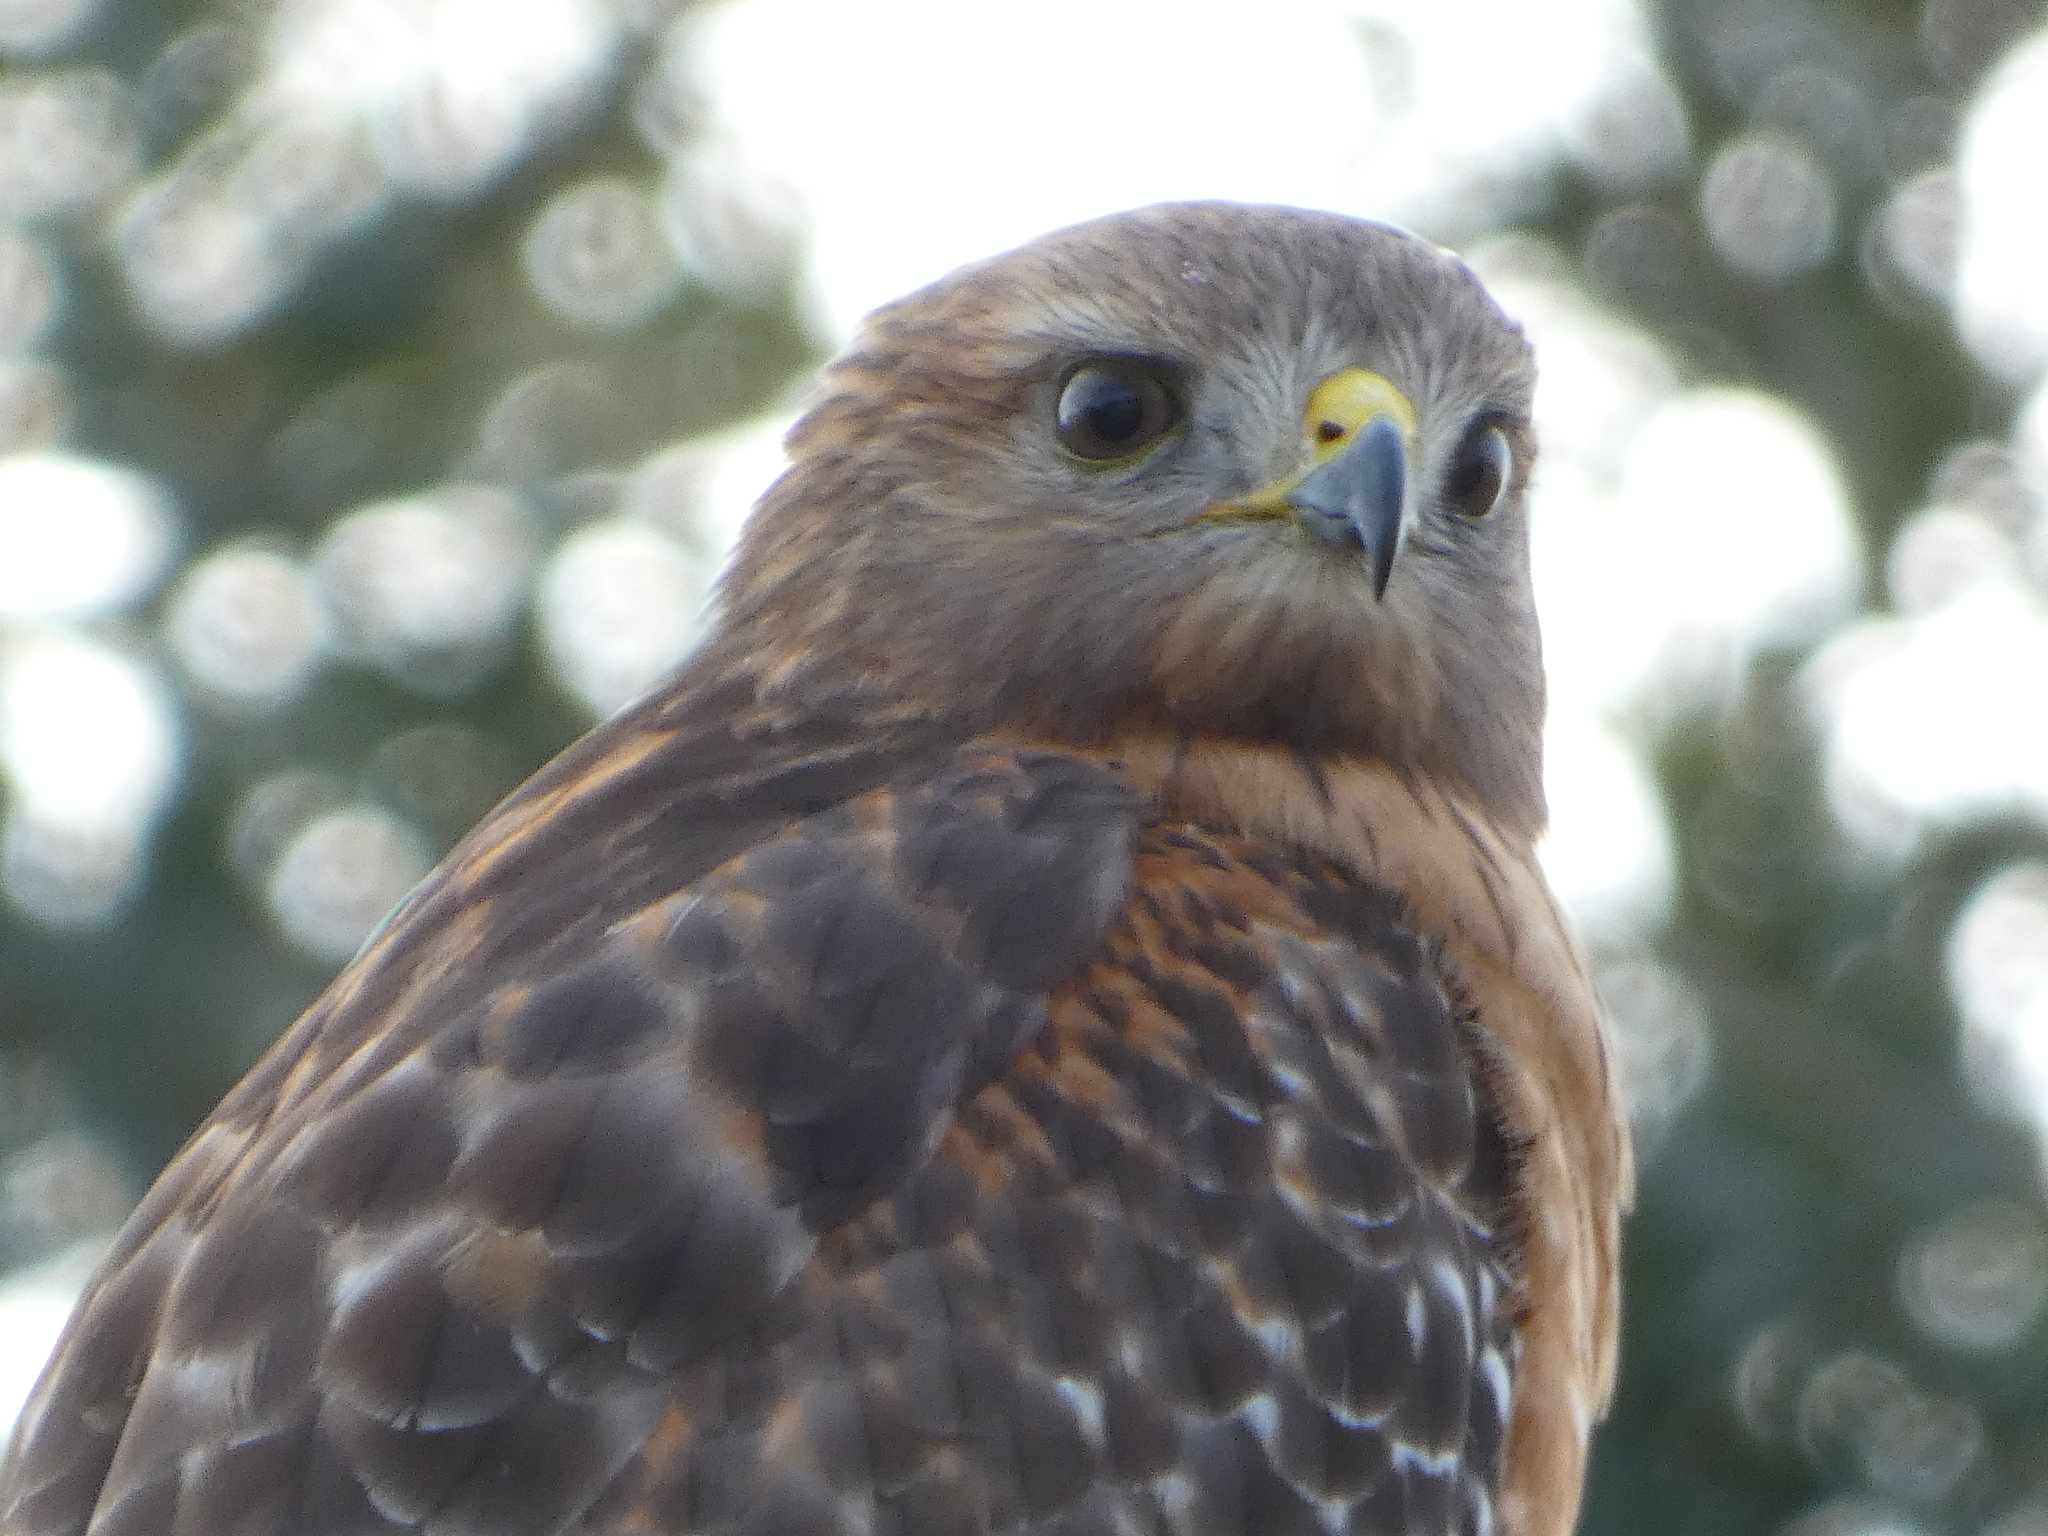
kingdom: Animalia
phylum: Chordata
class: Aves
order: Accipitriformes
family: Accipitridae
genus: Buteo
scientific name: Buteo lineatus
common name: Red-shouldered hawk
